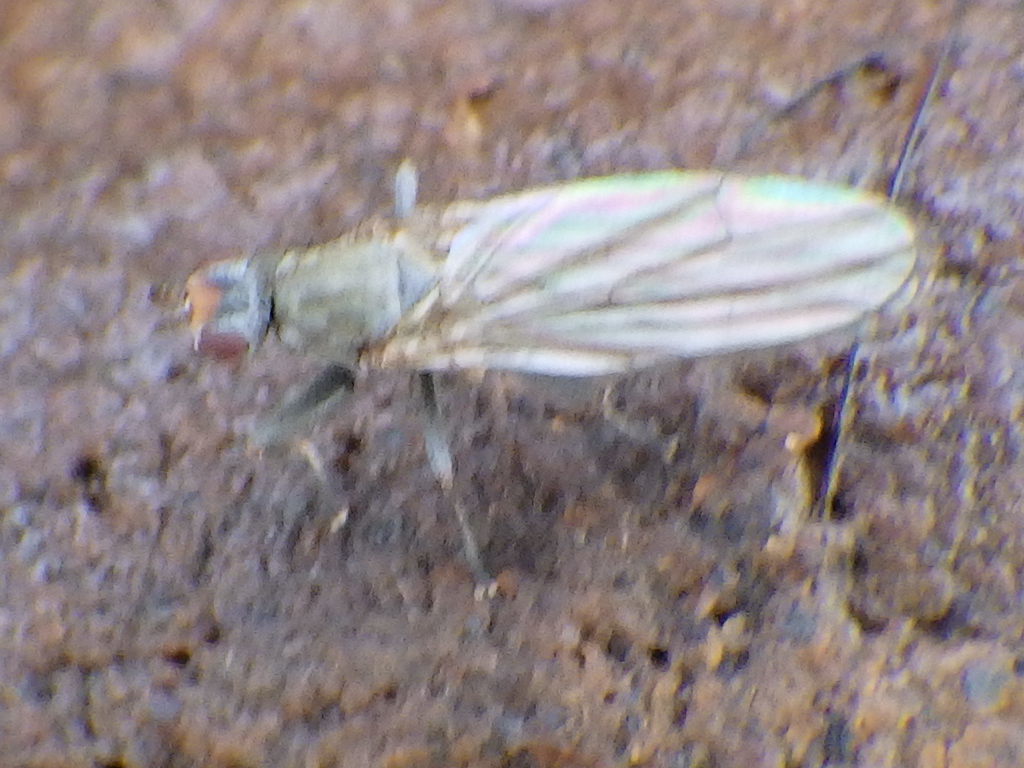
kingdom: Animalia
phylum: Arthropoda
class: Insecta
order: Diptera
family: Heleomyzidae
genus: Orbellia
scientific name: Orbellia petersoni
